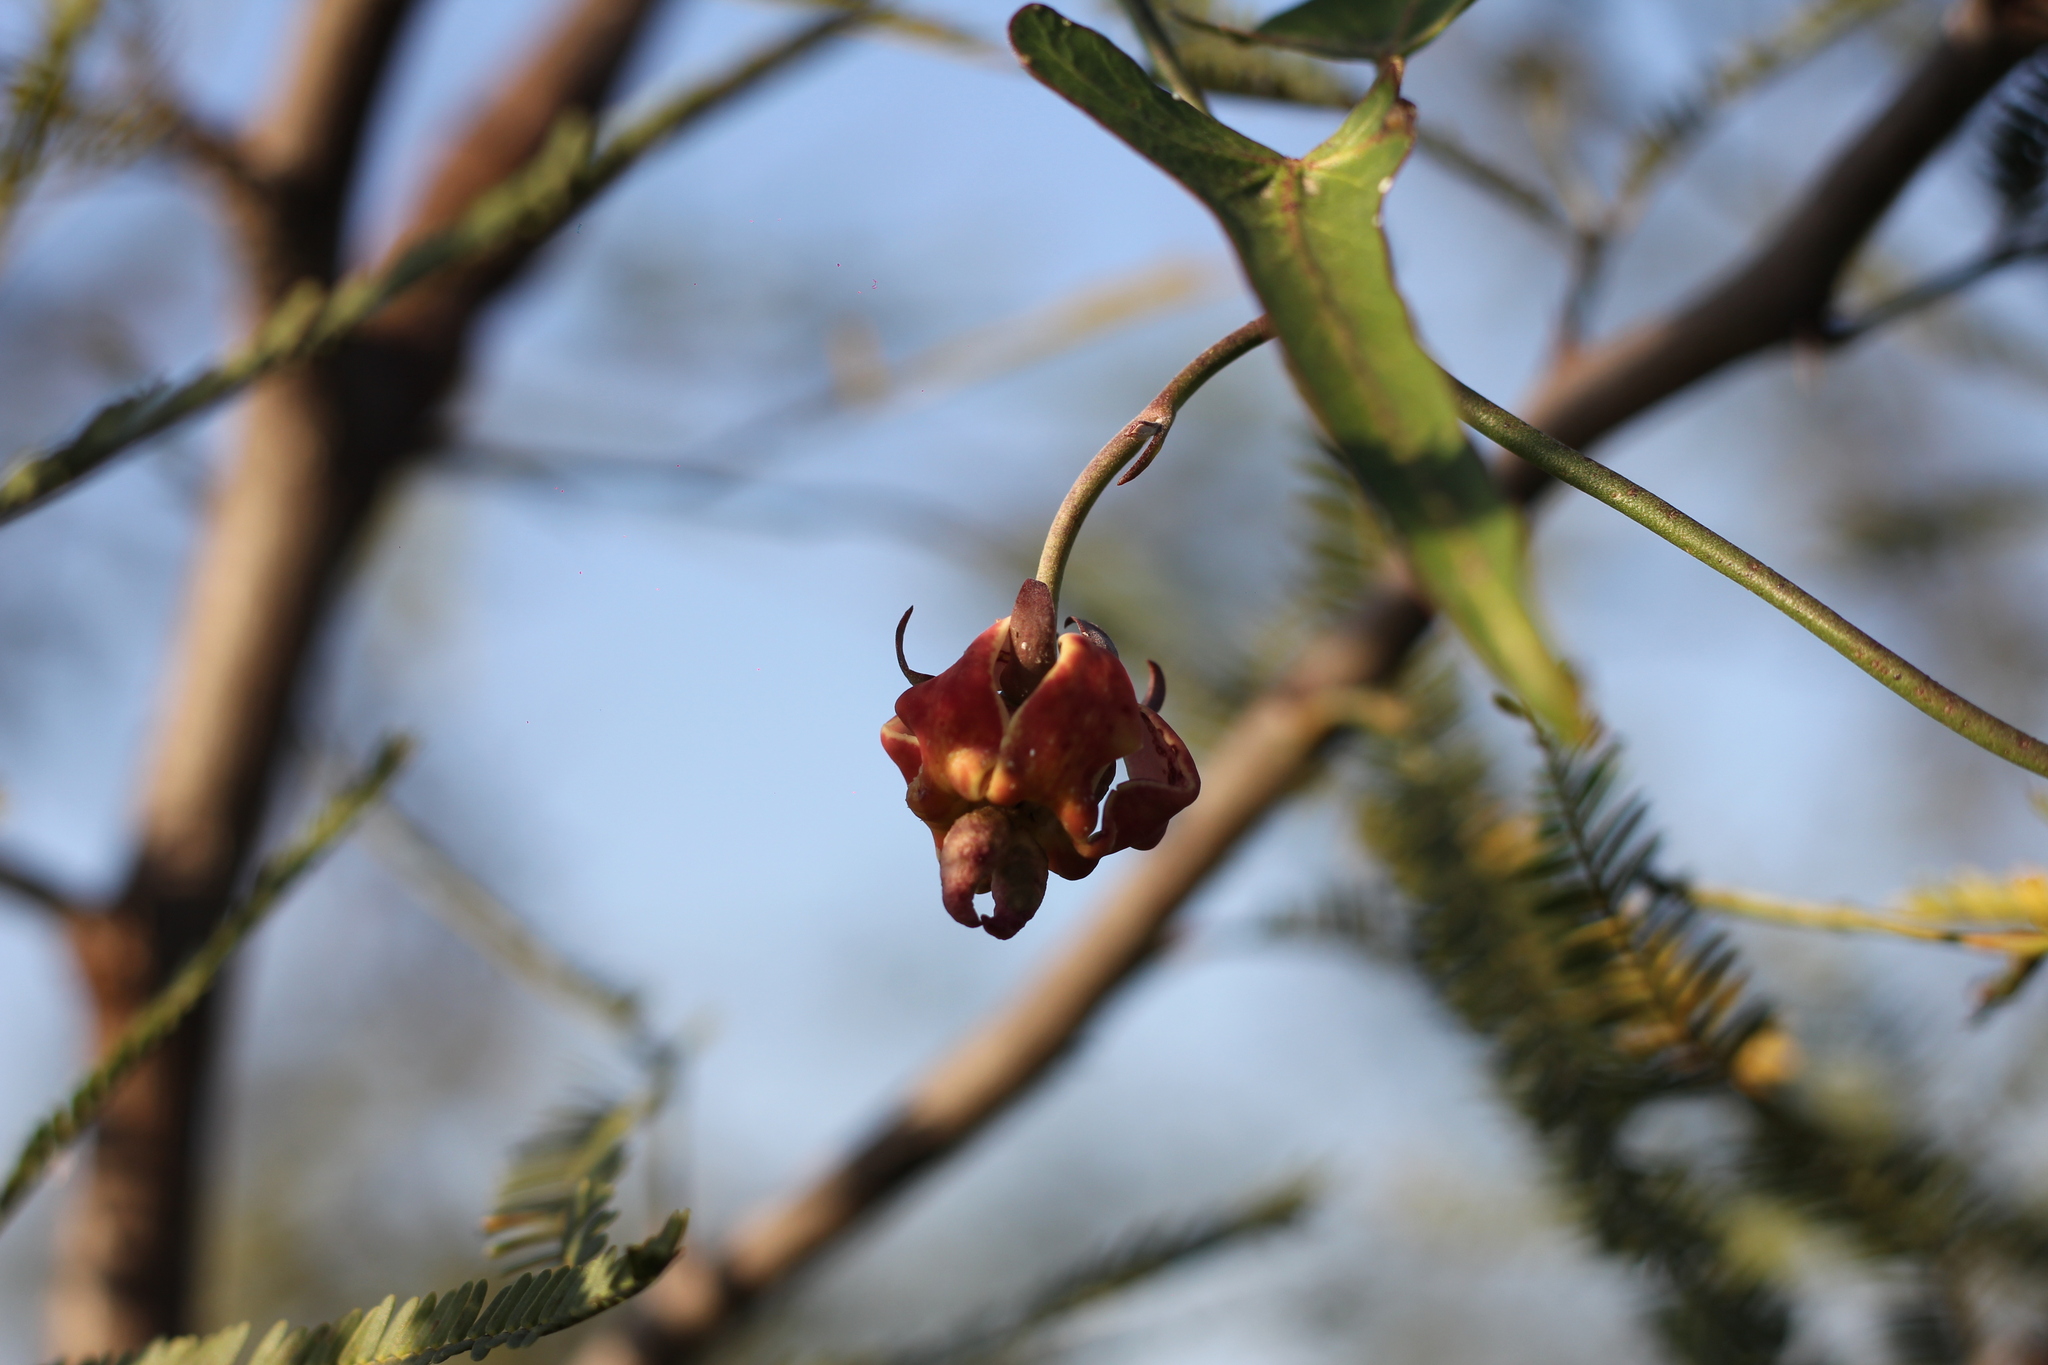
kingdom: Plantae
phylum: Tracheophyta
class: Magnoliopsida
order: Gentianales
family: Apocynaceae
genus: Araujia
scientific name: Araujia angustifolia
